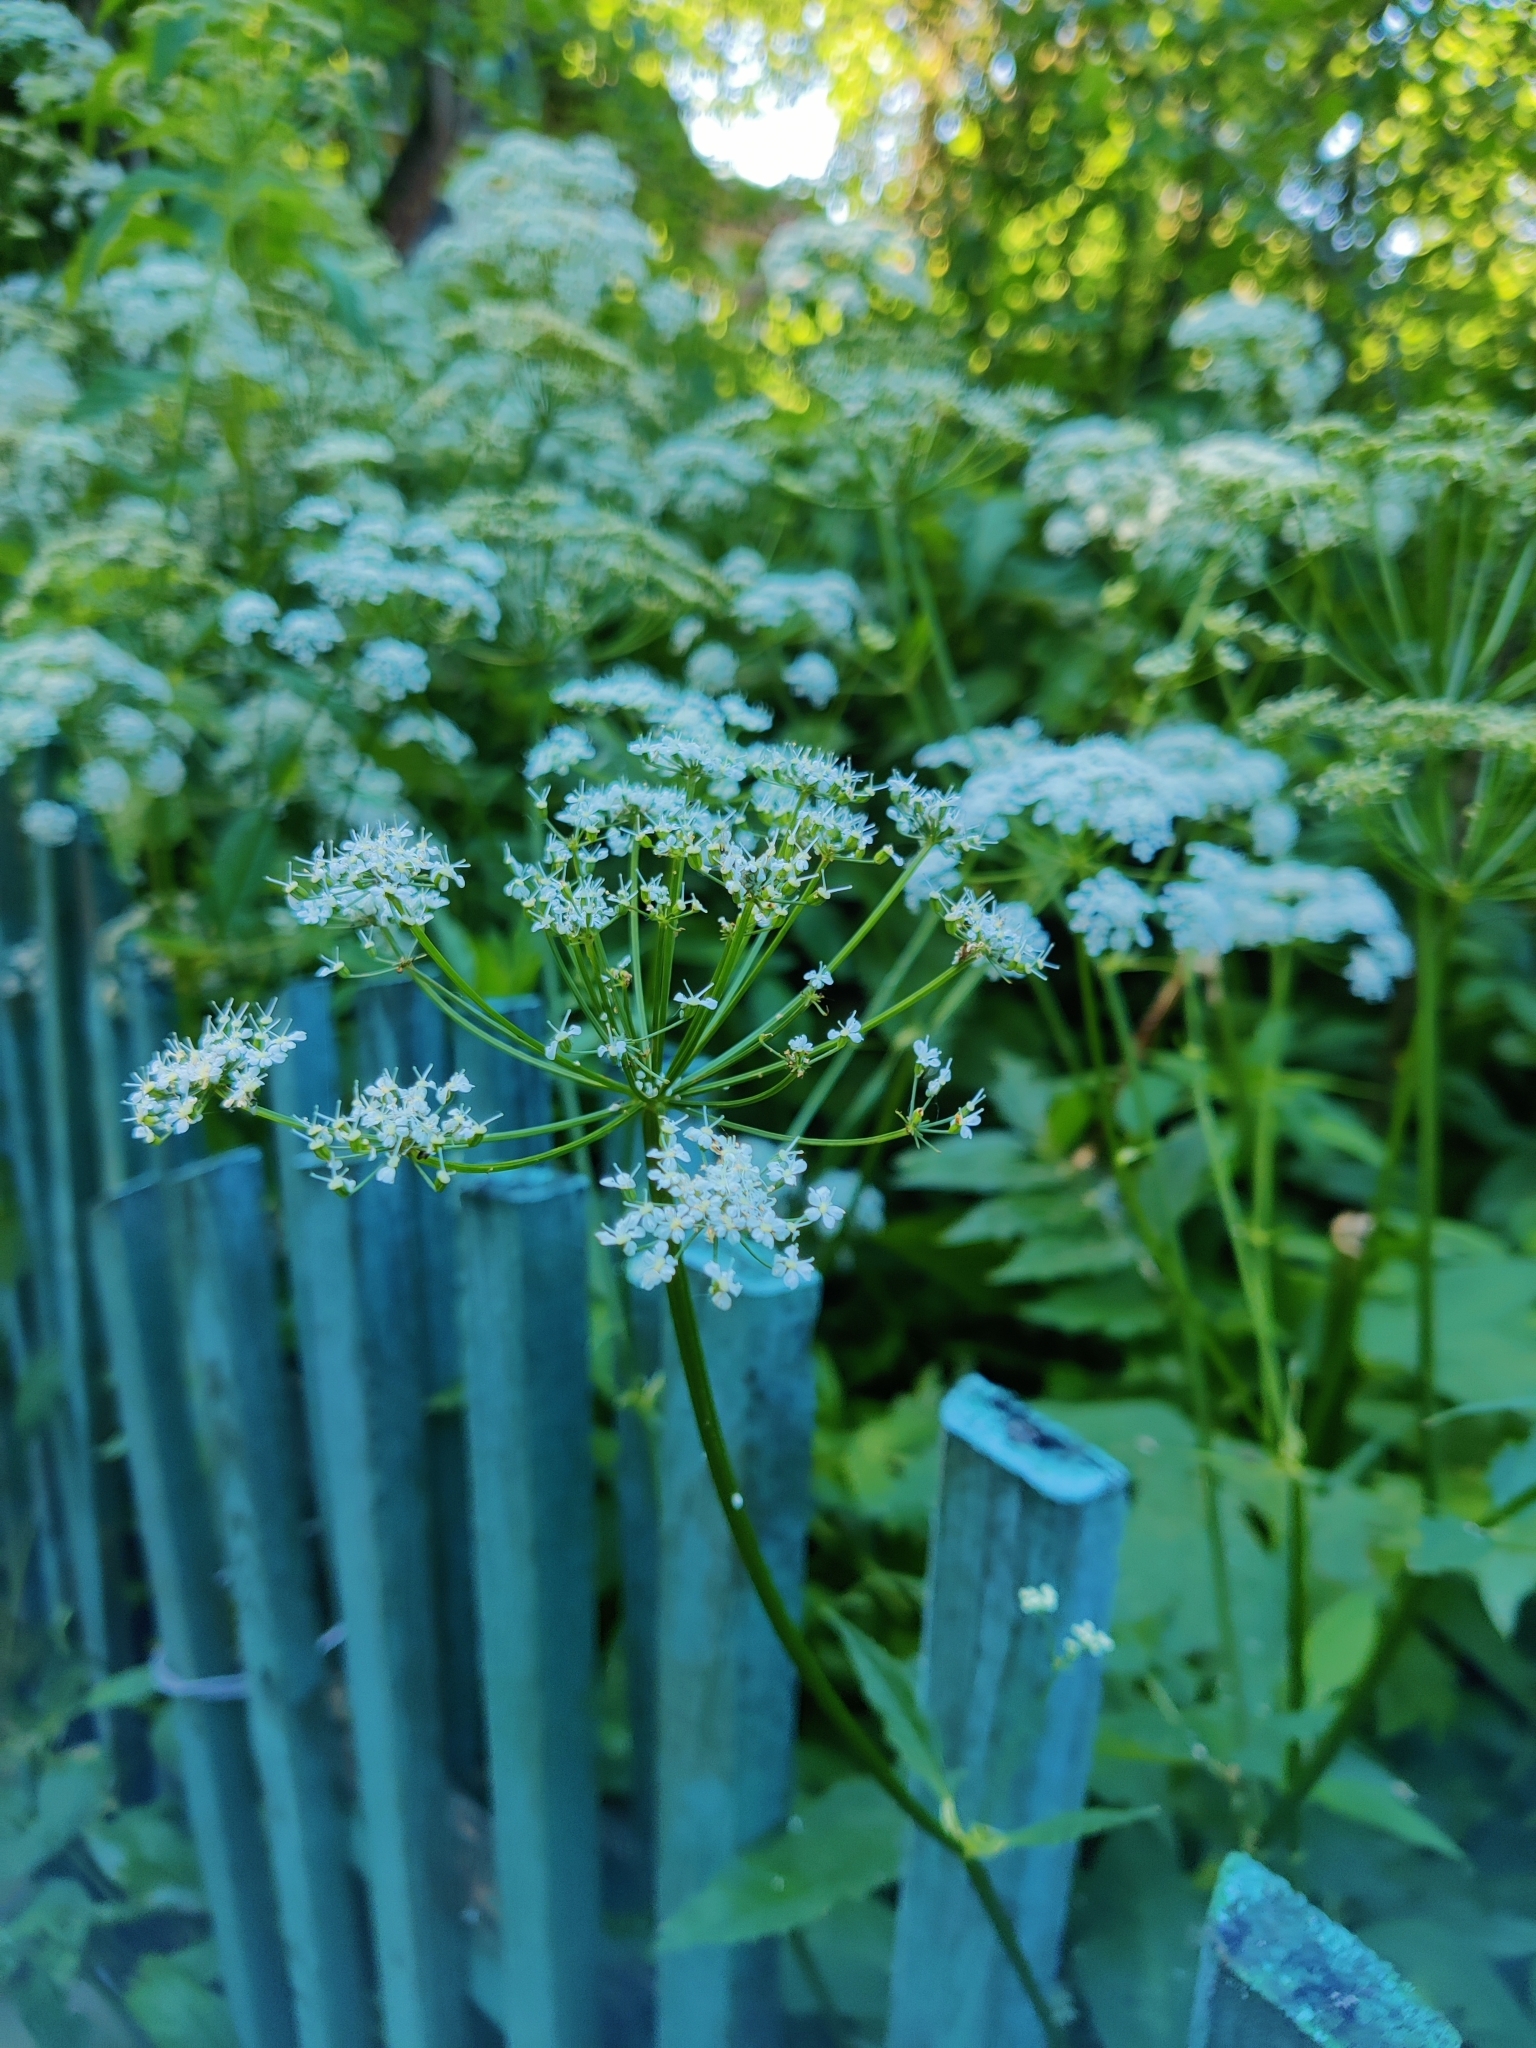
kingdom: Plantae
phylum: Tracheophyta
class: Magnoliopsida
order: Apiales
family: Apiaceae
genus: Aegopodium
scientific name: Aegopodium podagraria
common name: Ground-elder
